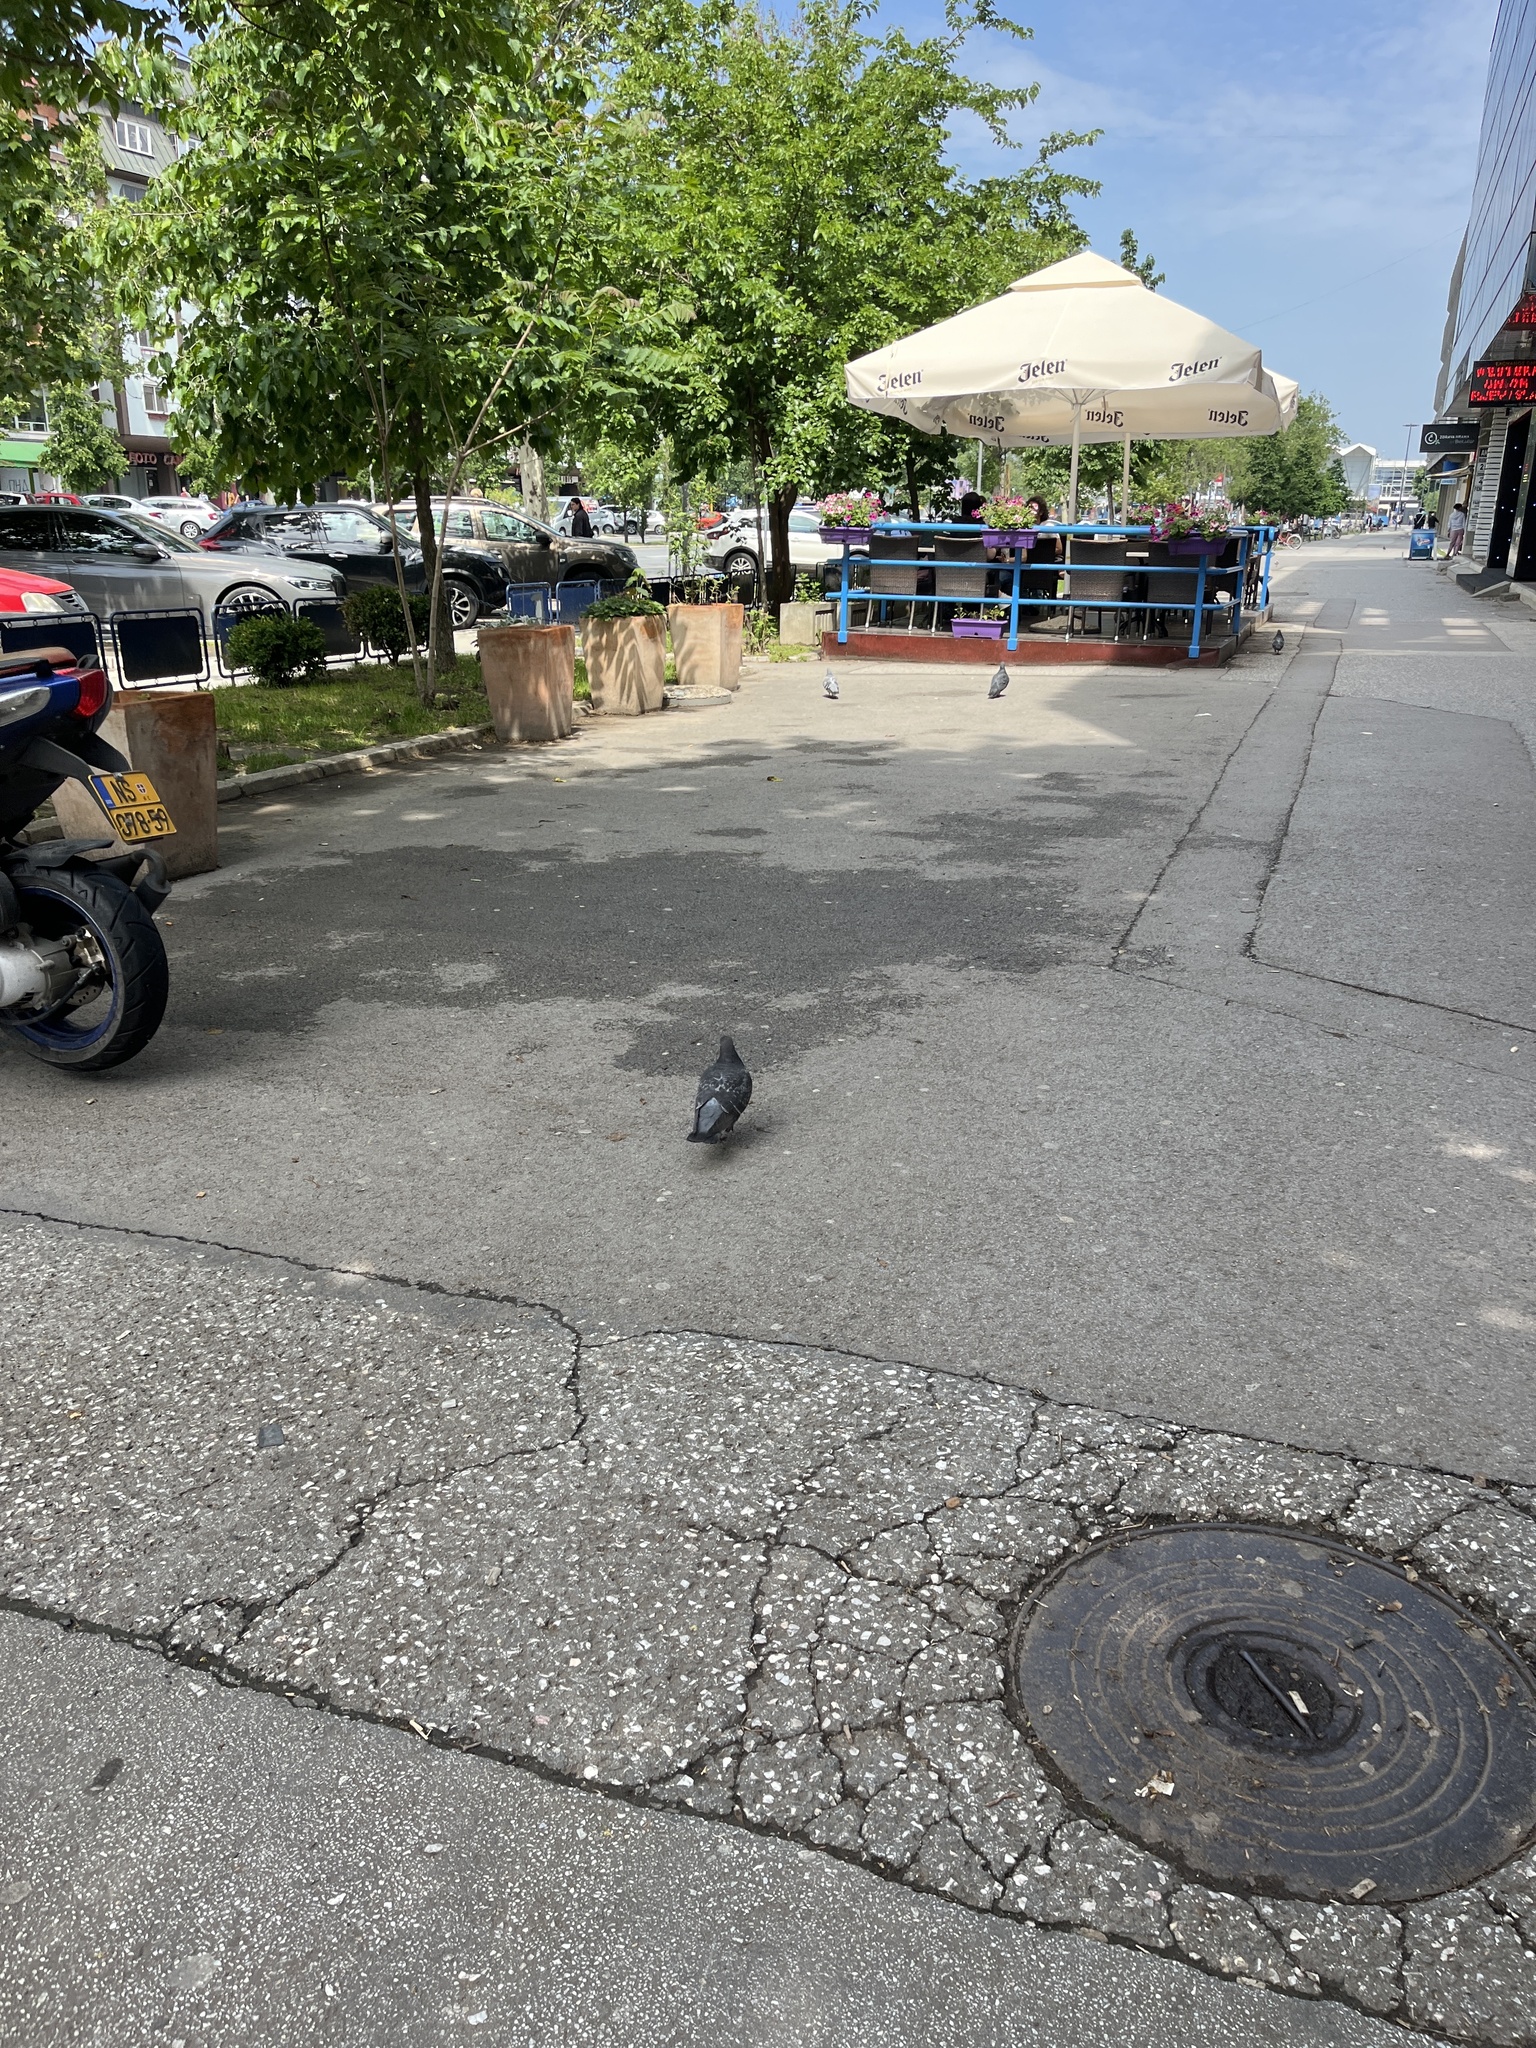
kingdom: Animalia
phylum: Chordata
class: Aves
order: Columbiformes
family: Columbidae
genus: Columba
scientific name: Columba livia
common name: Rock pigeon
